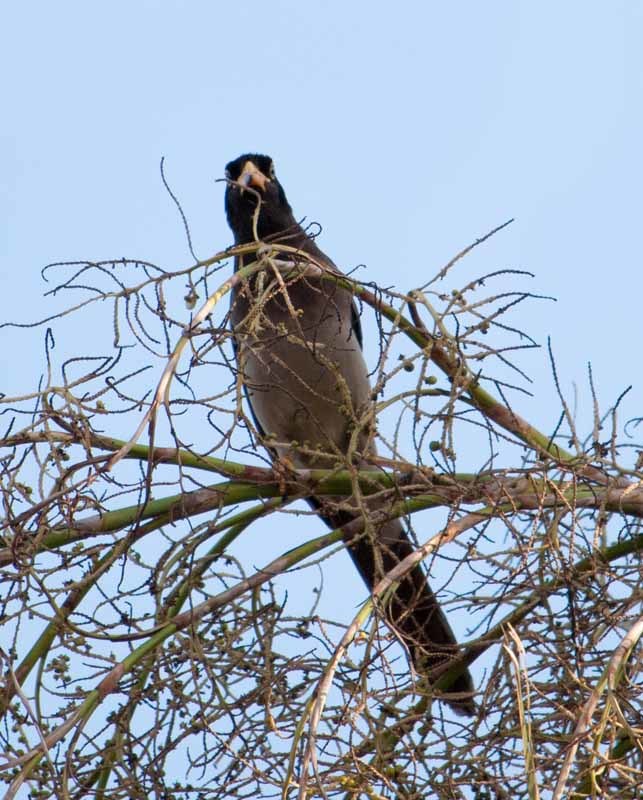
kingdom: Animalia
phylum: Chordata
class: Aves
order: Passeriformes
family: Corvidae
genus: Psilorhinus
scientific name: Psilorhinus morio
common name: Brown jay
